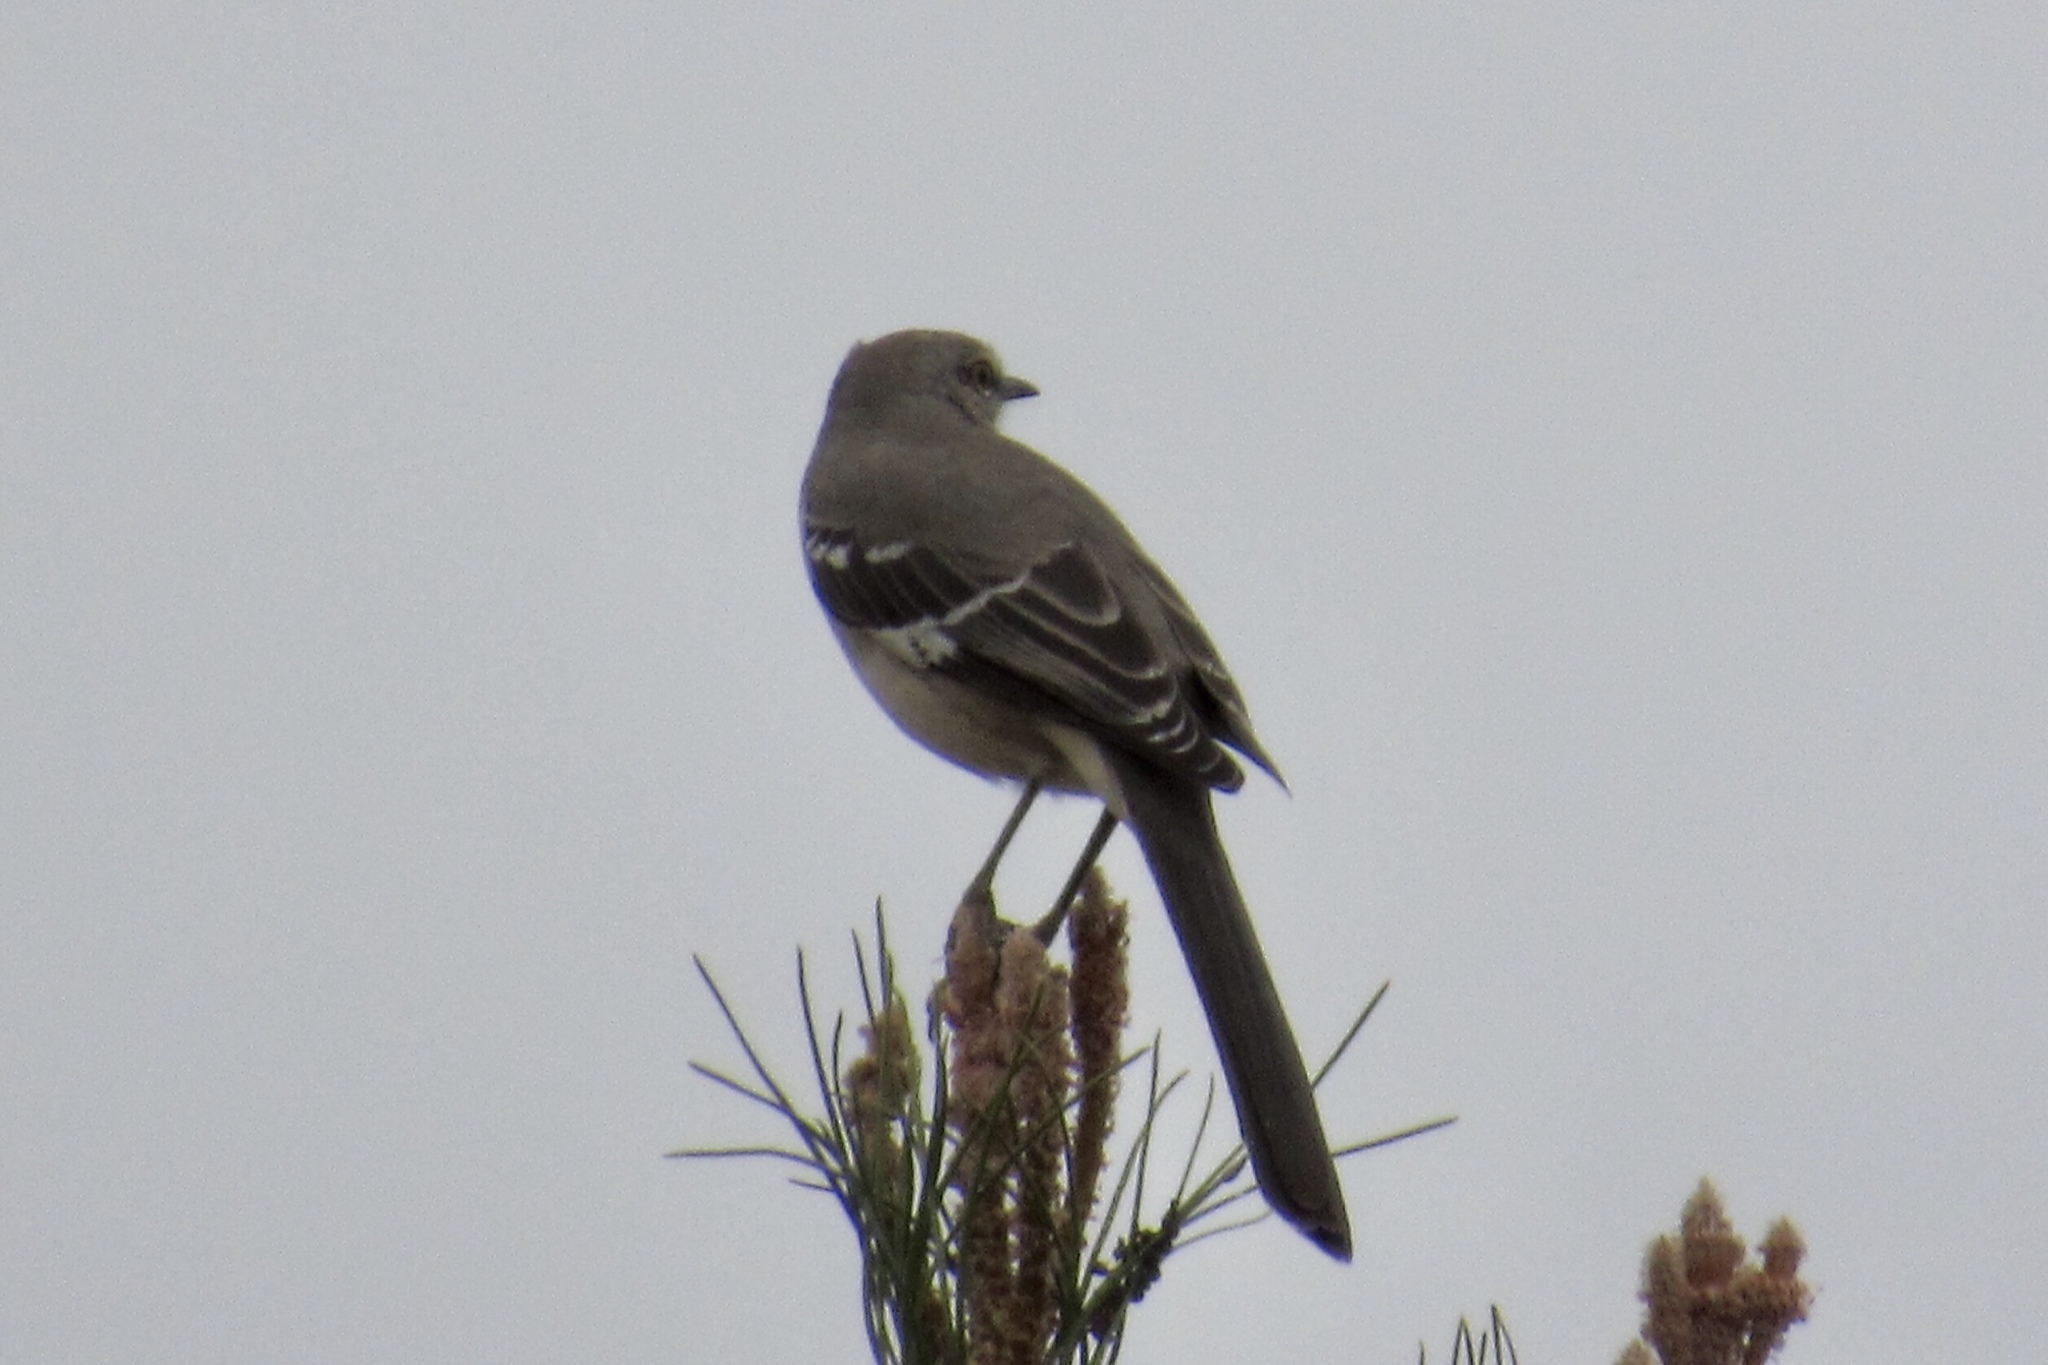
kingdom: Animalia
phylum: Chordata
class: Aves
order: Passeriformes
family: Mimidae
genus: Mimus
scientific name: Mimus polyglottos
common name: Northern mockingbird
